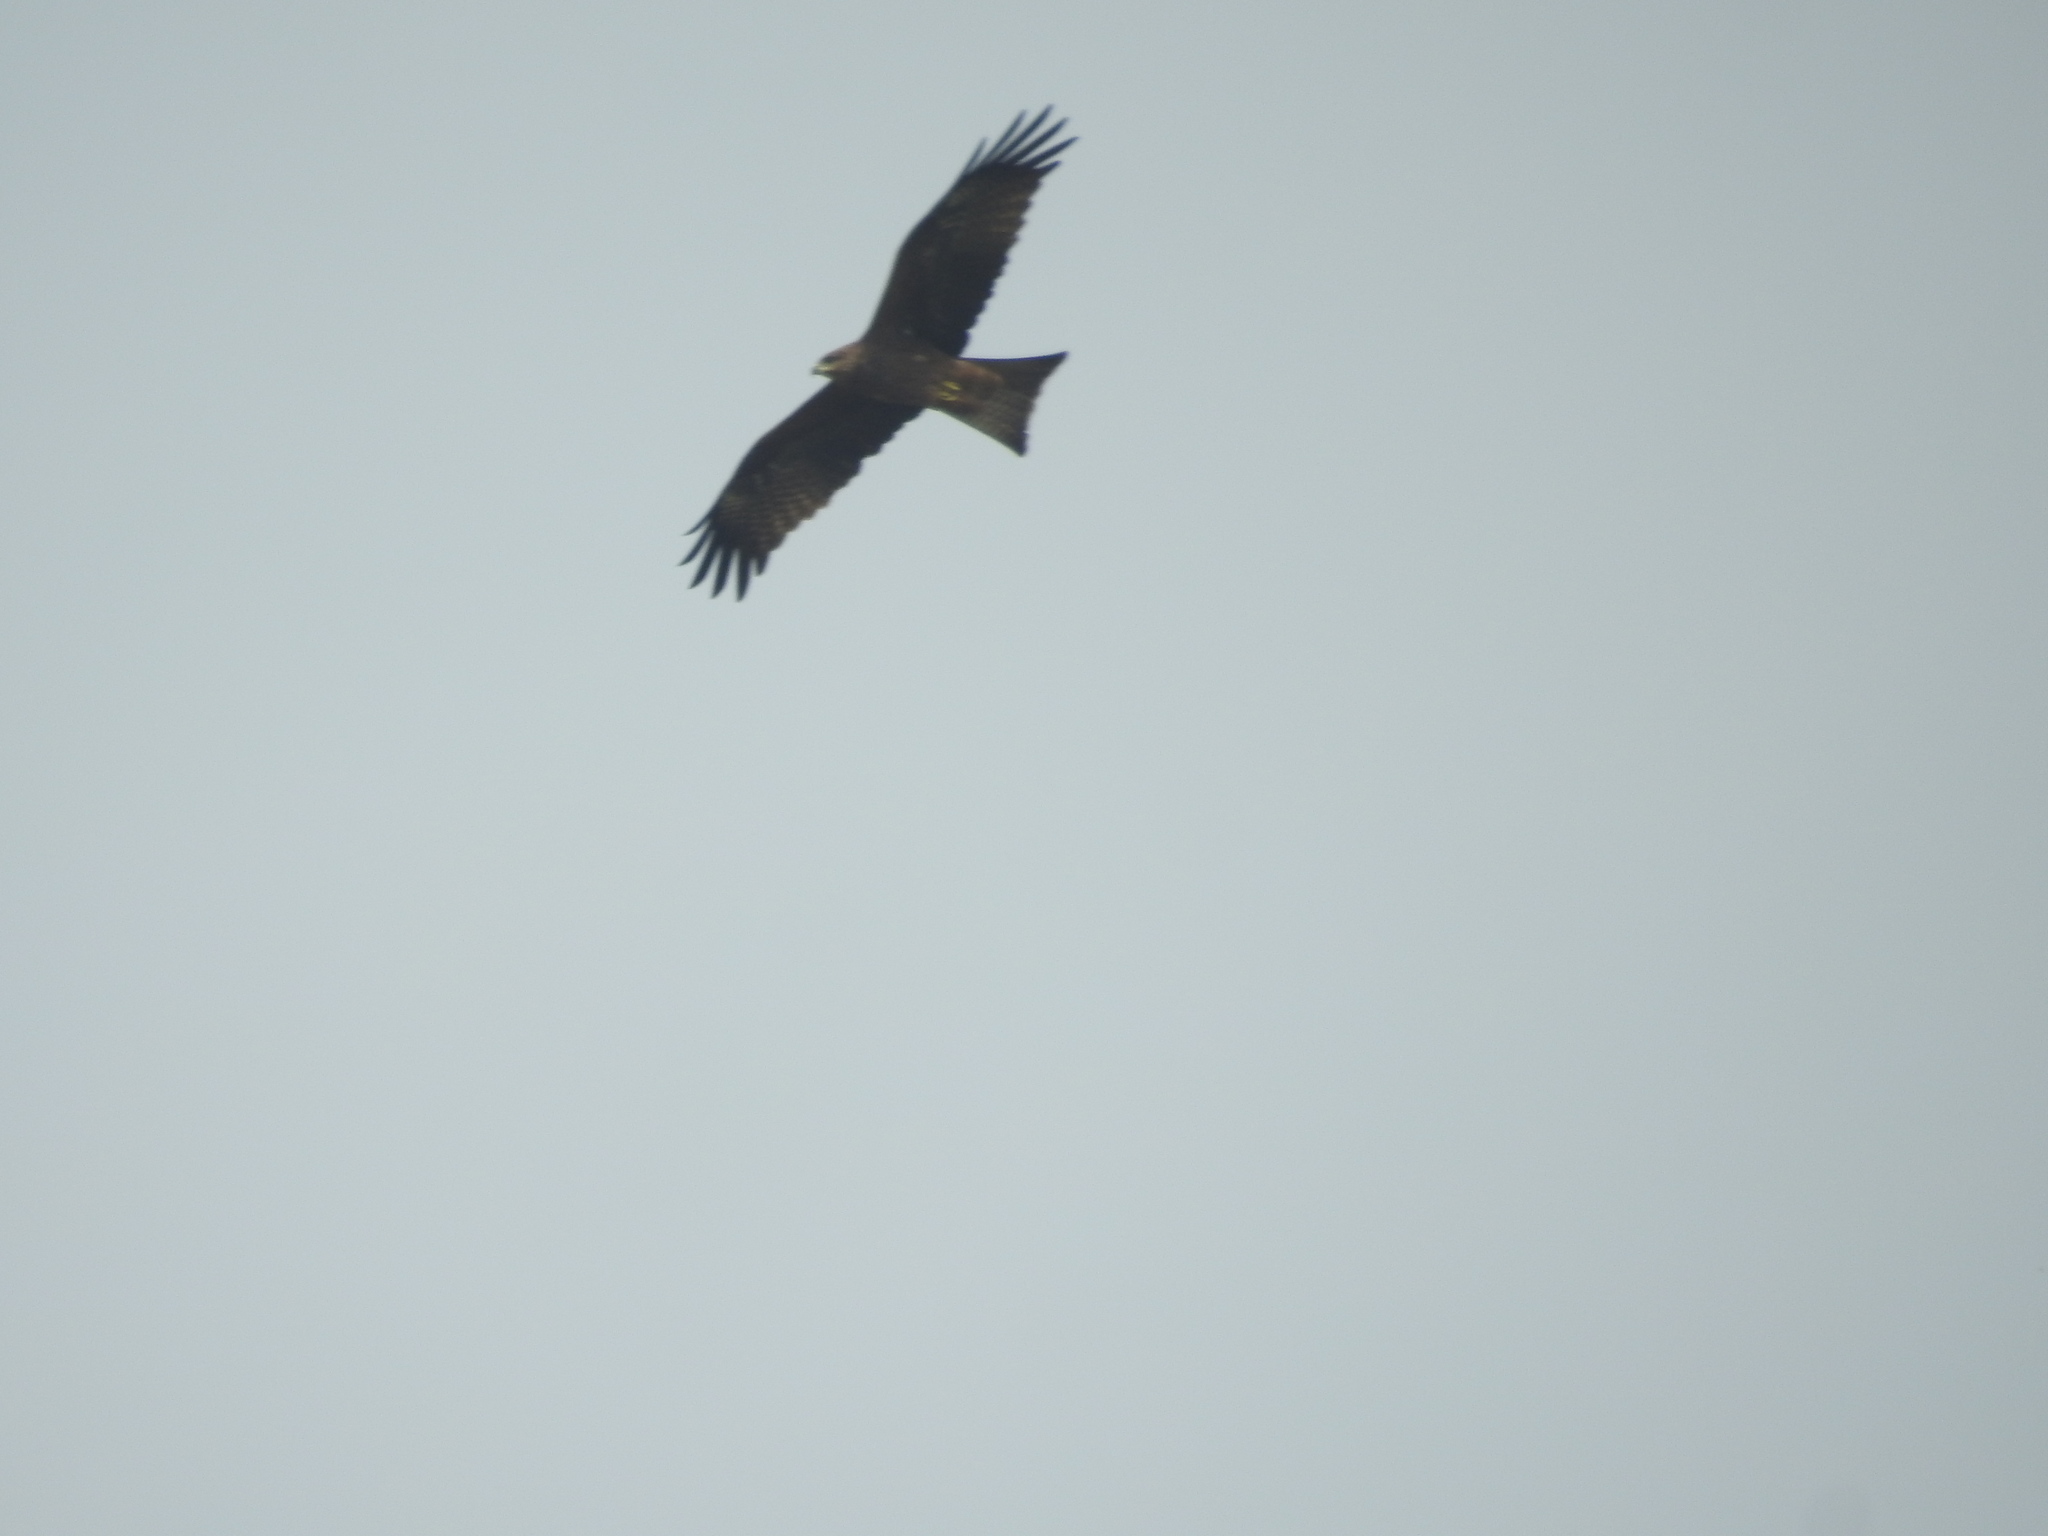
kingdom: Animalia
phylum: Chordata
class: Aves
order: Accipitriformes
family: Accipitridae
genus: Milvus
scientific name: Milvus migrans
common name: Black kite
